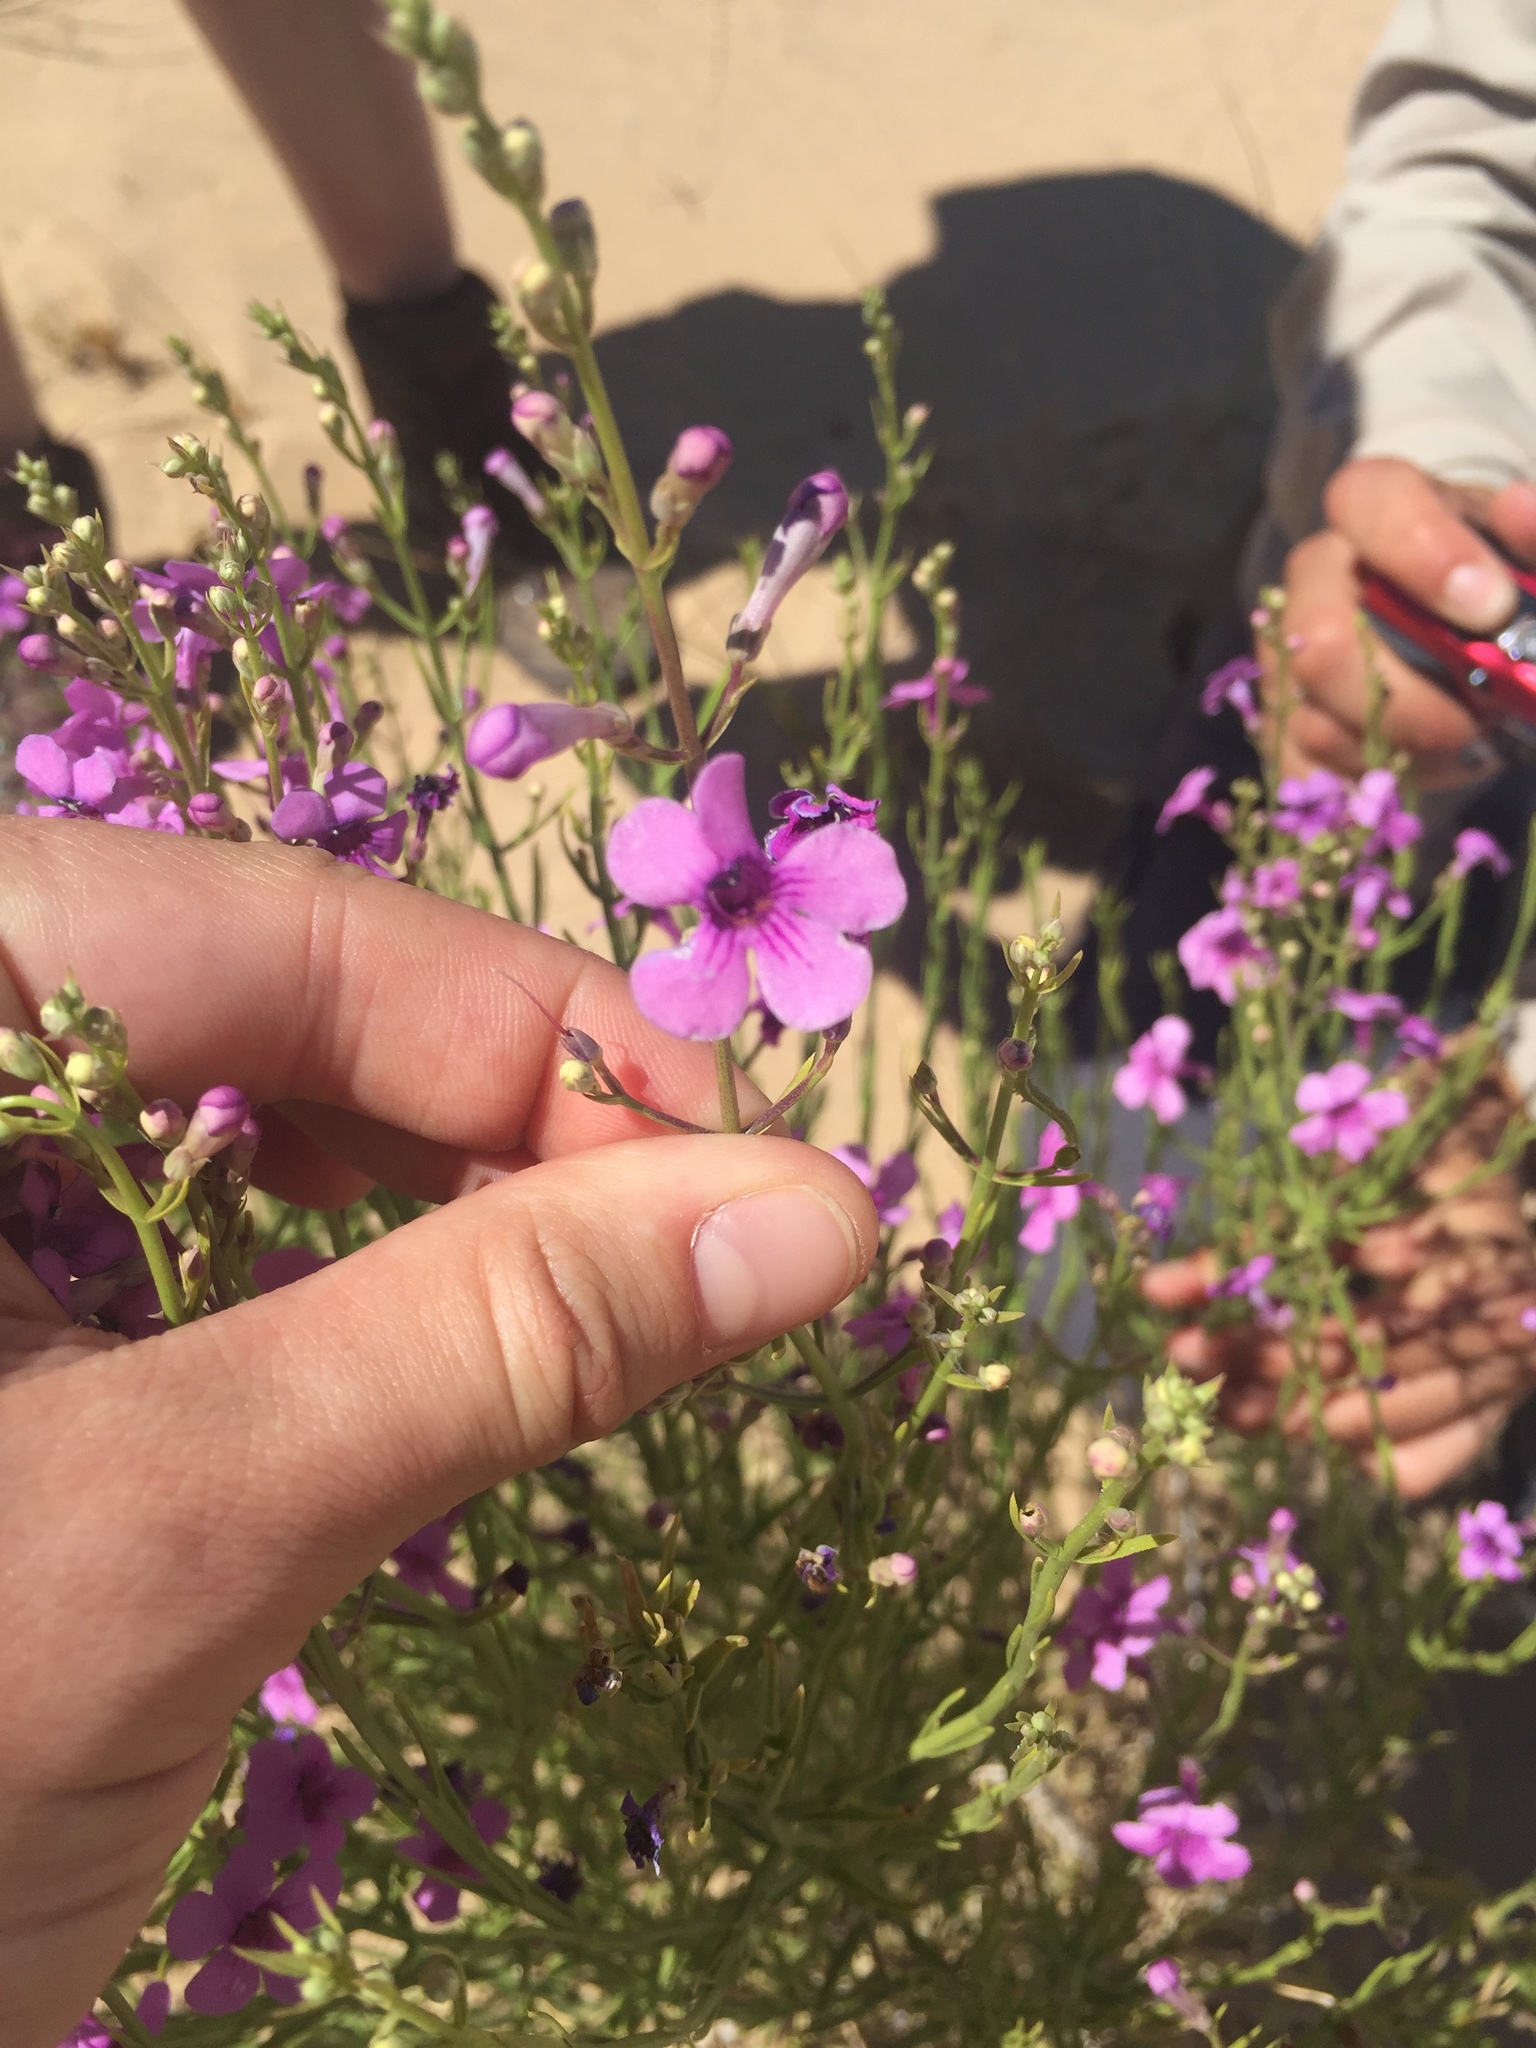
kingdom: Plantae
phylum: Tracheophyta
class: Magnoliopsida
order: Lamiales
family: Plantaginaceae
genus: Penstemon
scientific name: Penstemon thurberi
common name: Thurber's beardtongue
